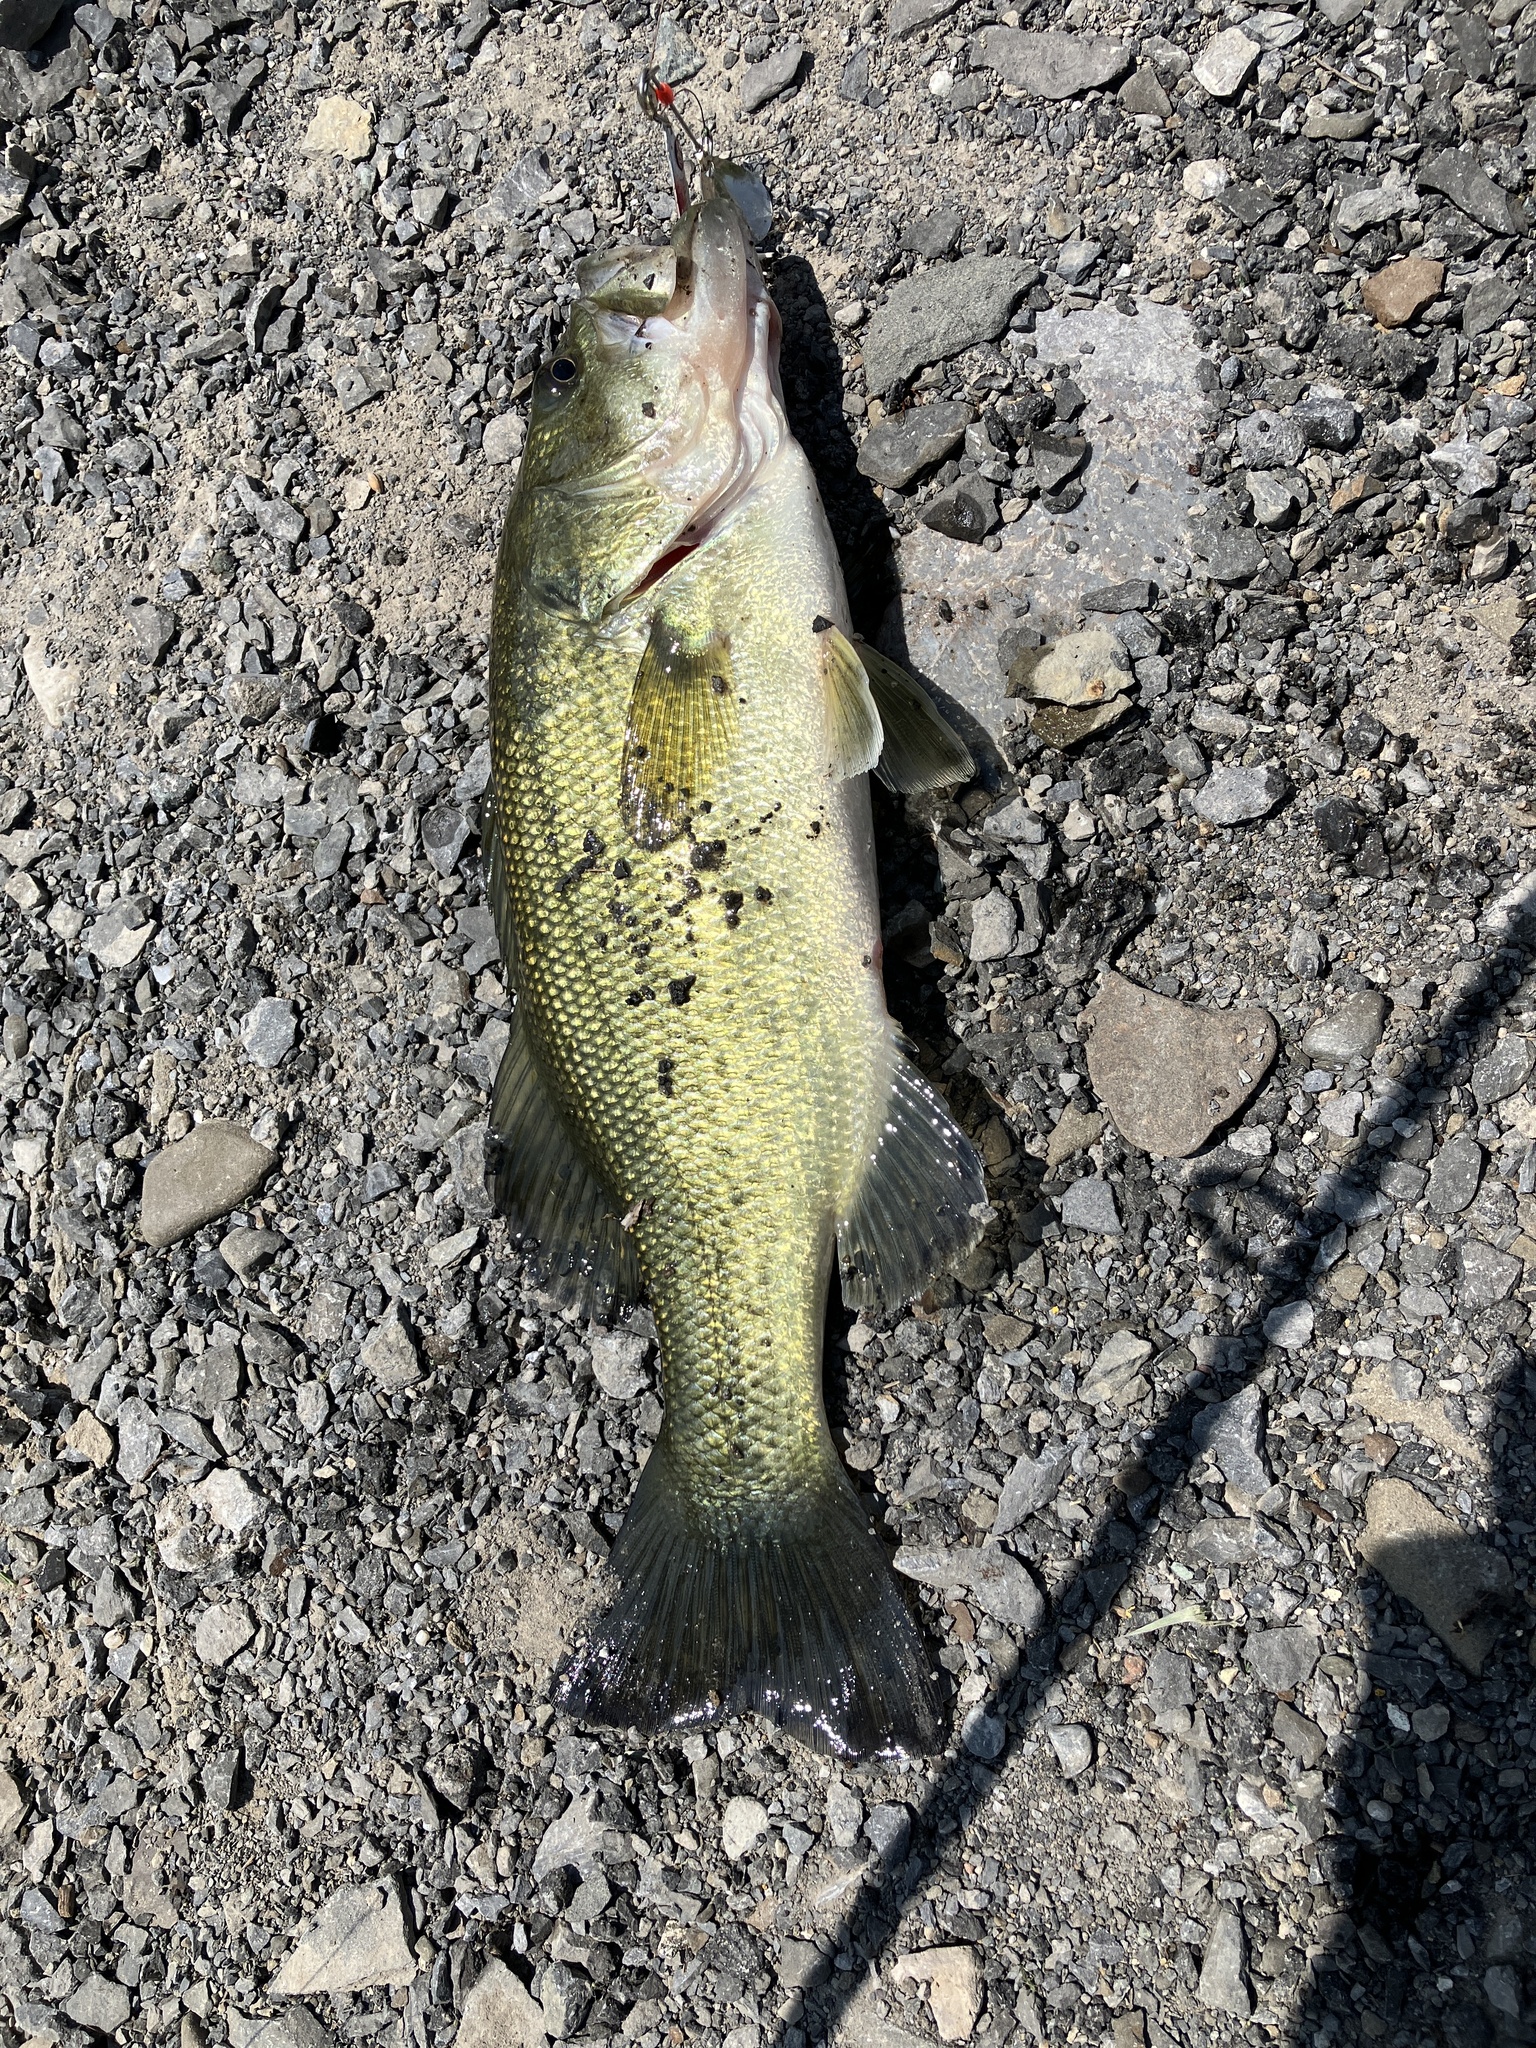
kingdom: Animalia
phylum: Chordata
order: Perciformes
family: Centrarchidae
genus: Micropterus
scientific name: Micropterus
